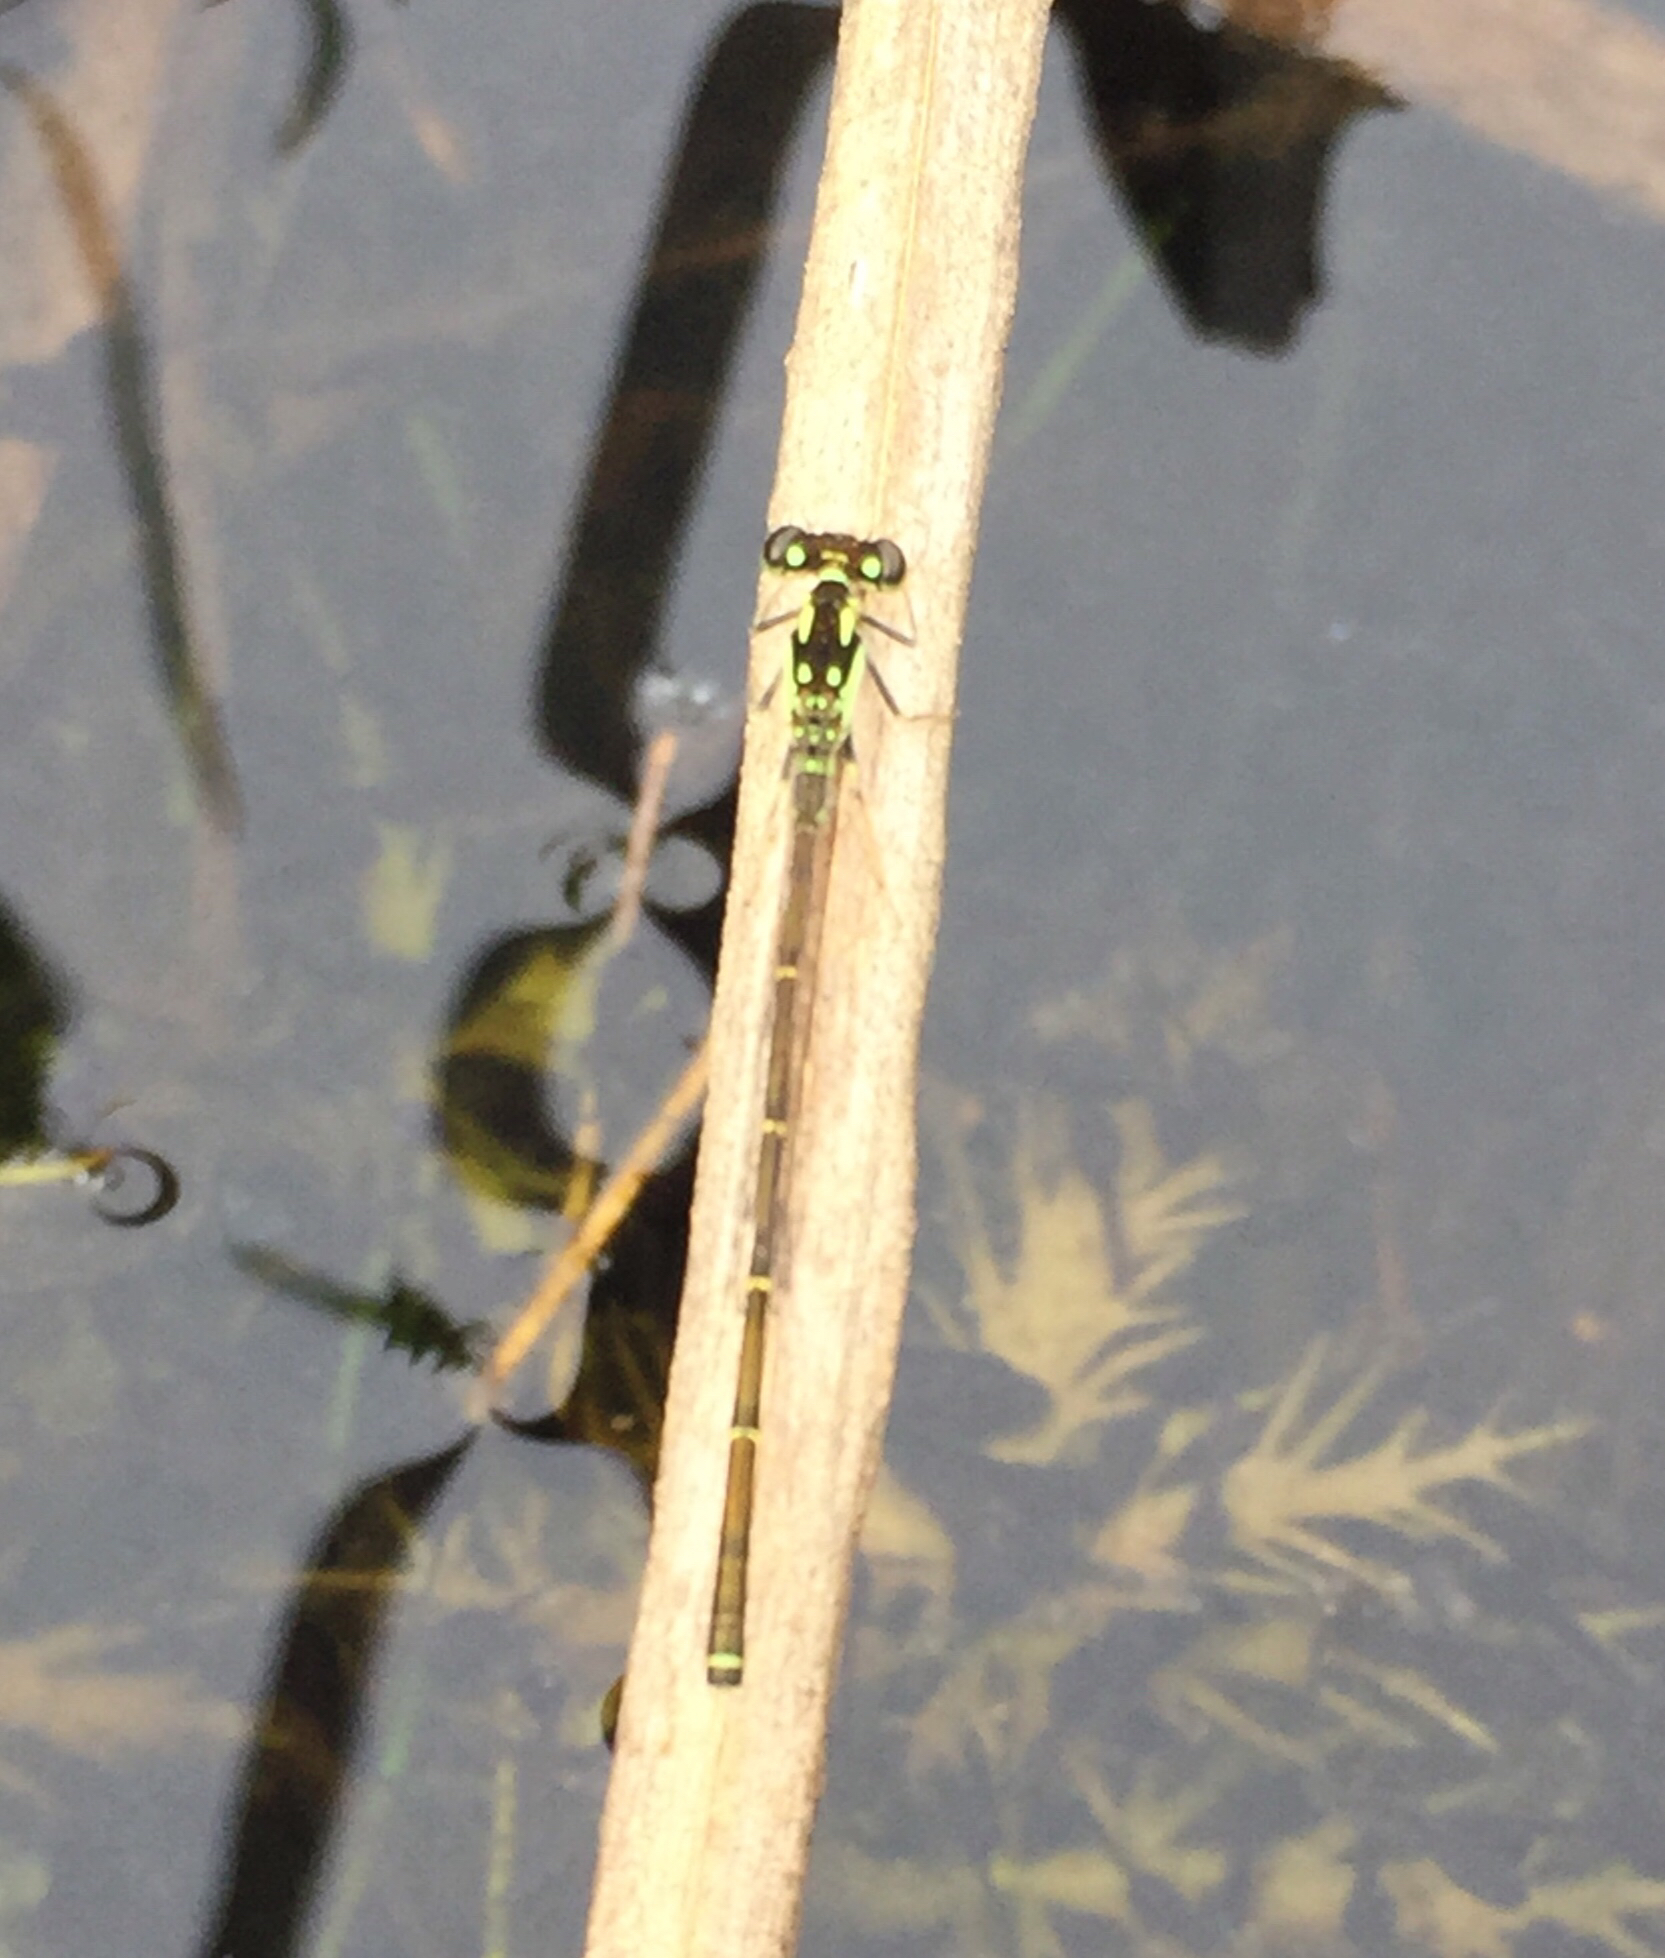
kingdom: Animalia
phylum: Arthropoda
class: Insecta
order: Odonata
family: Coenagrionidae
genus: Ischnura
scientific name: Ischnura posita
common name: Fragile forktail
